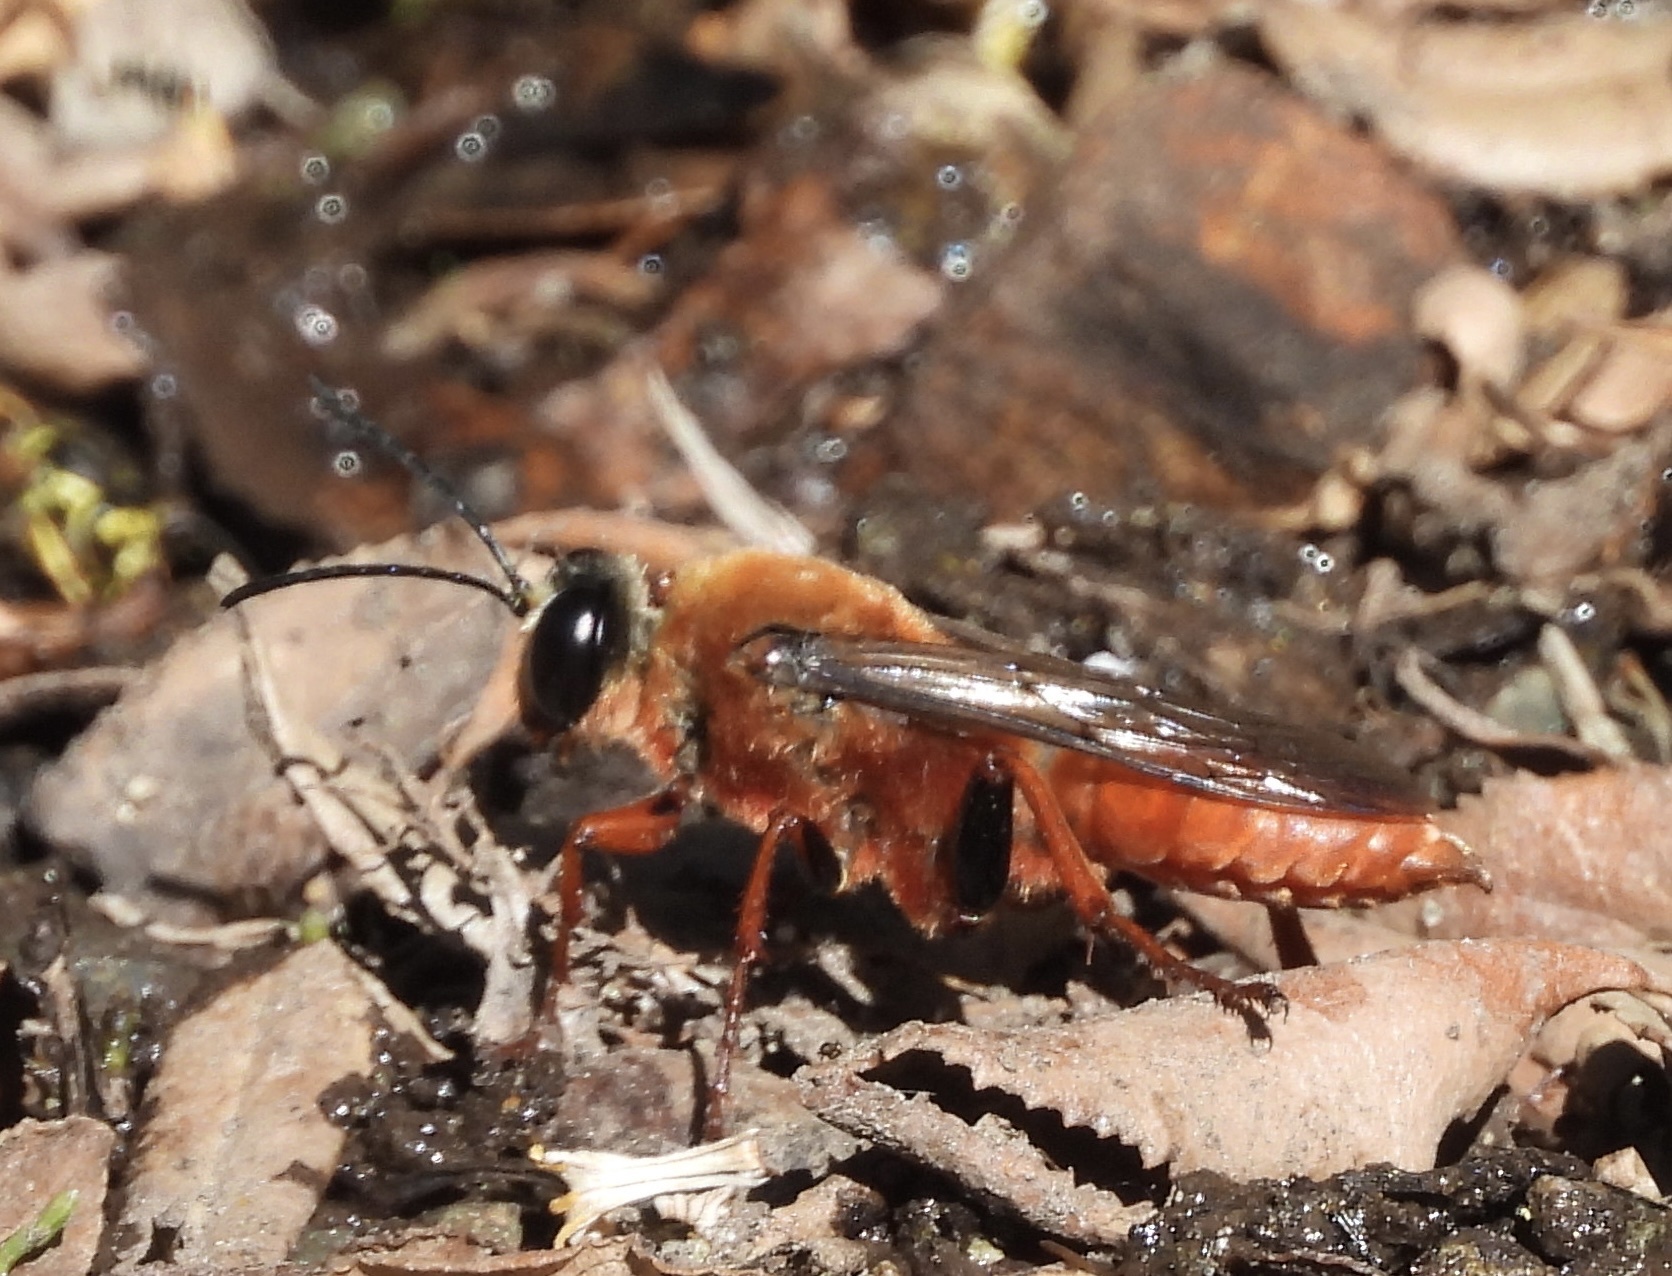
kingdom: Animalia
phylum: Arthropoda
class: Insecta
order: Hymenoptera
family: Sphecidae
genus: Sphex
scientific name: Sphex latreillei
